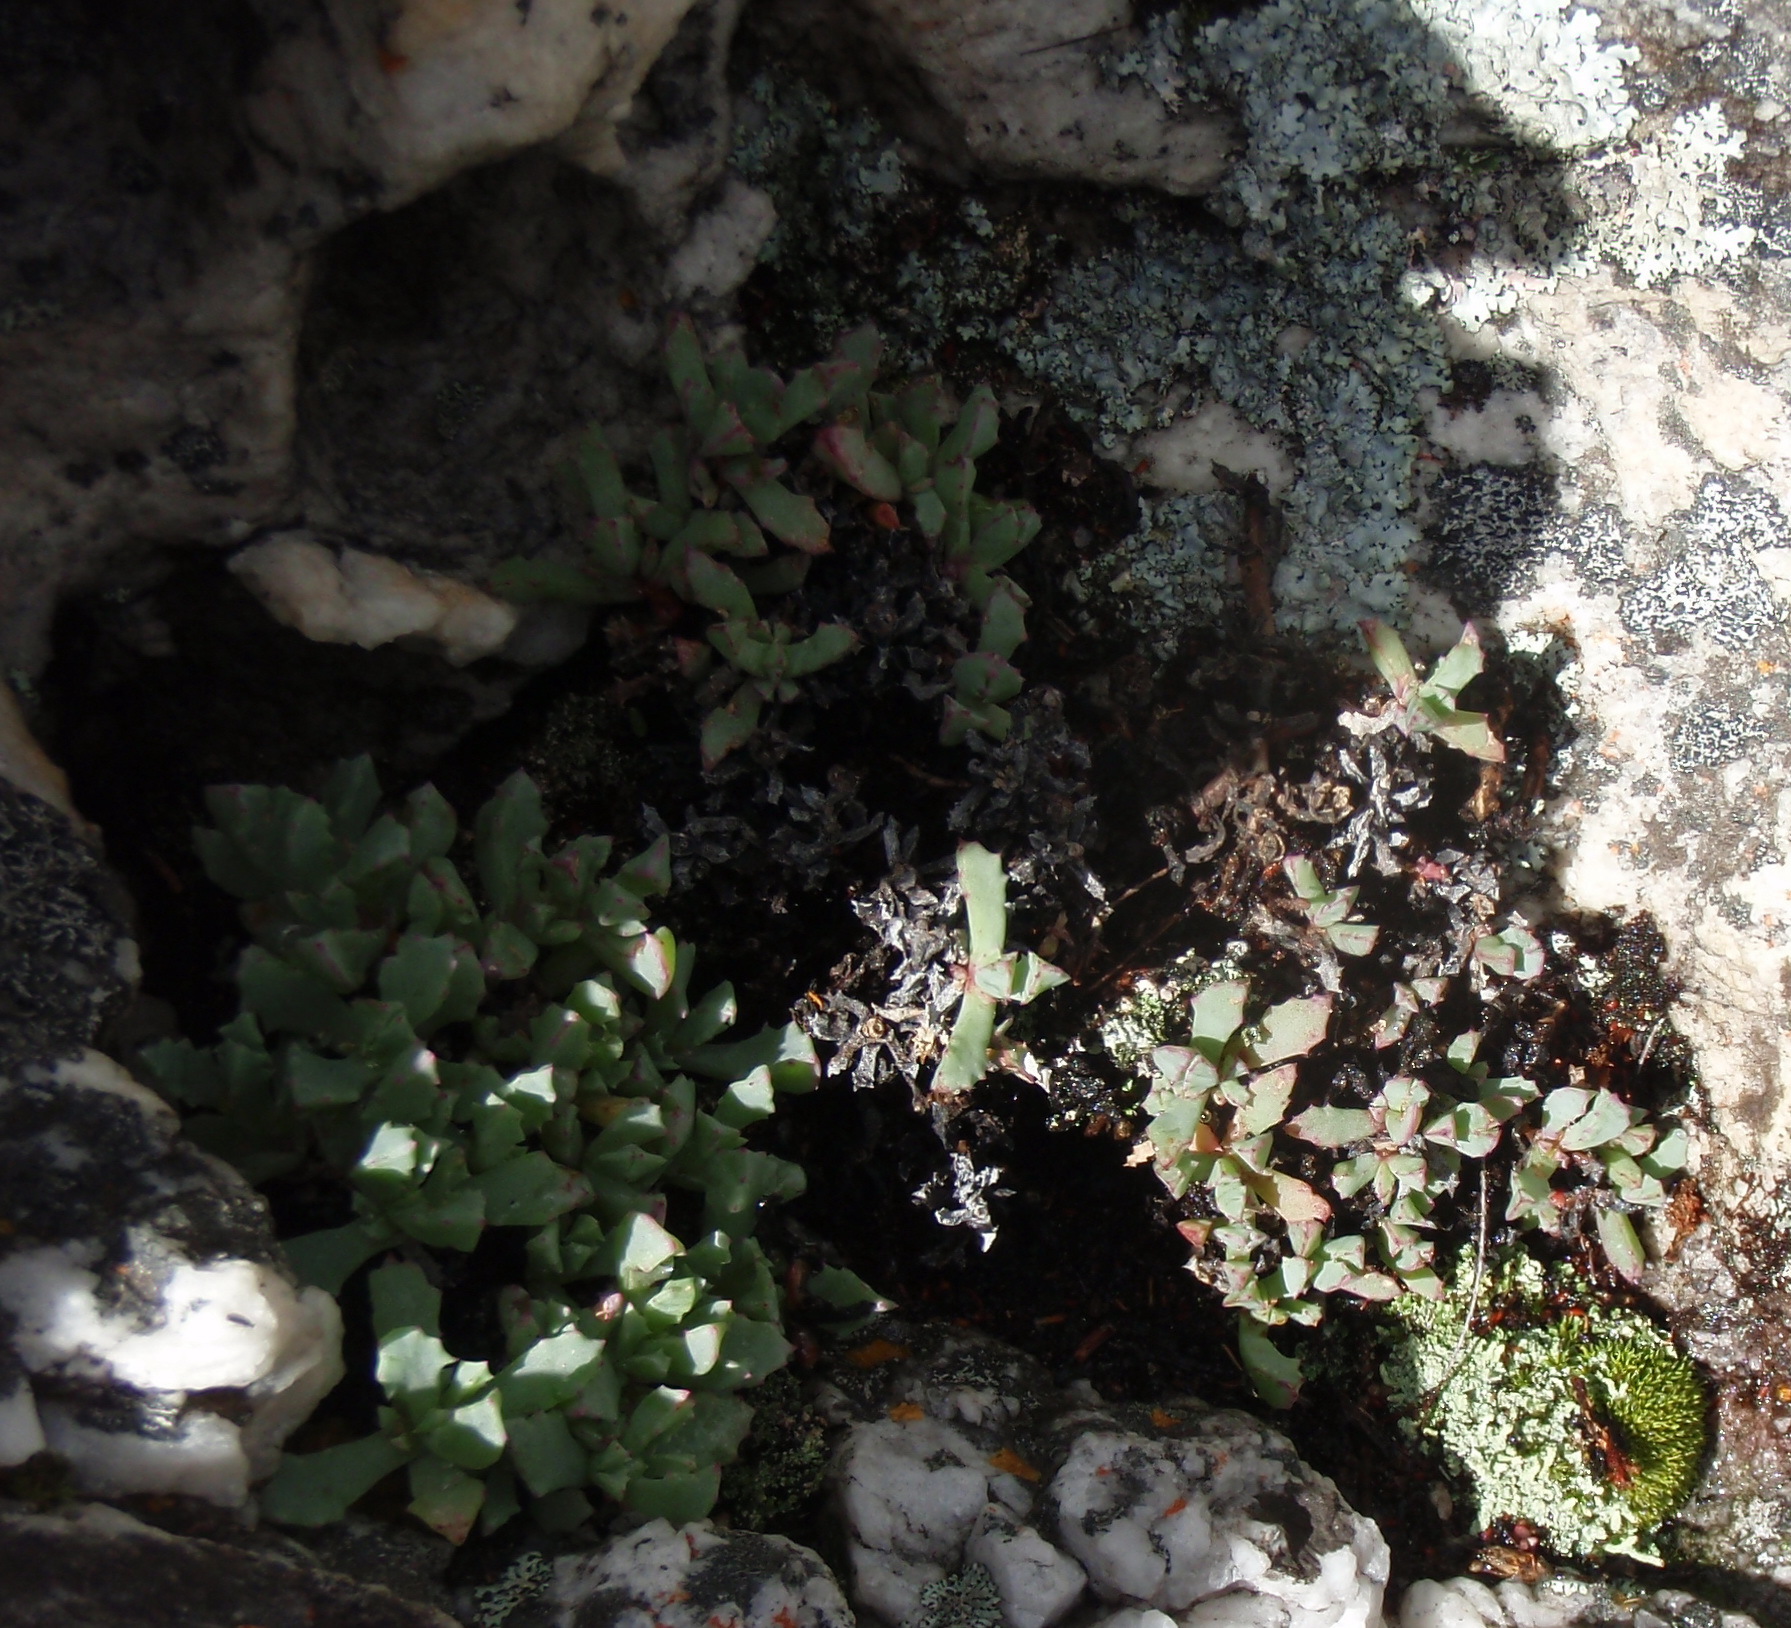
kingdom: Plantae
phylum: Tracheophyta
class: Magnoliopsida
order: Caryophyllales
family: Aizoaceae
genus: Oscularia
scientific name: Oscularia deltoides
